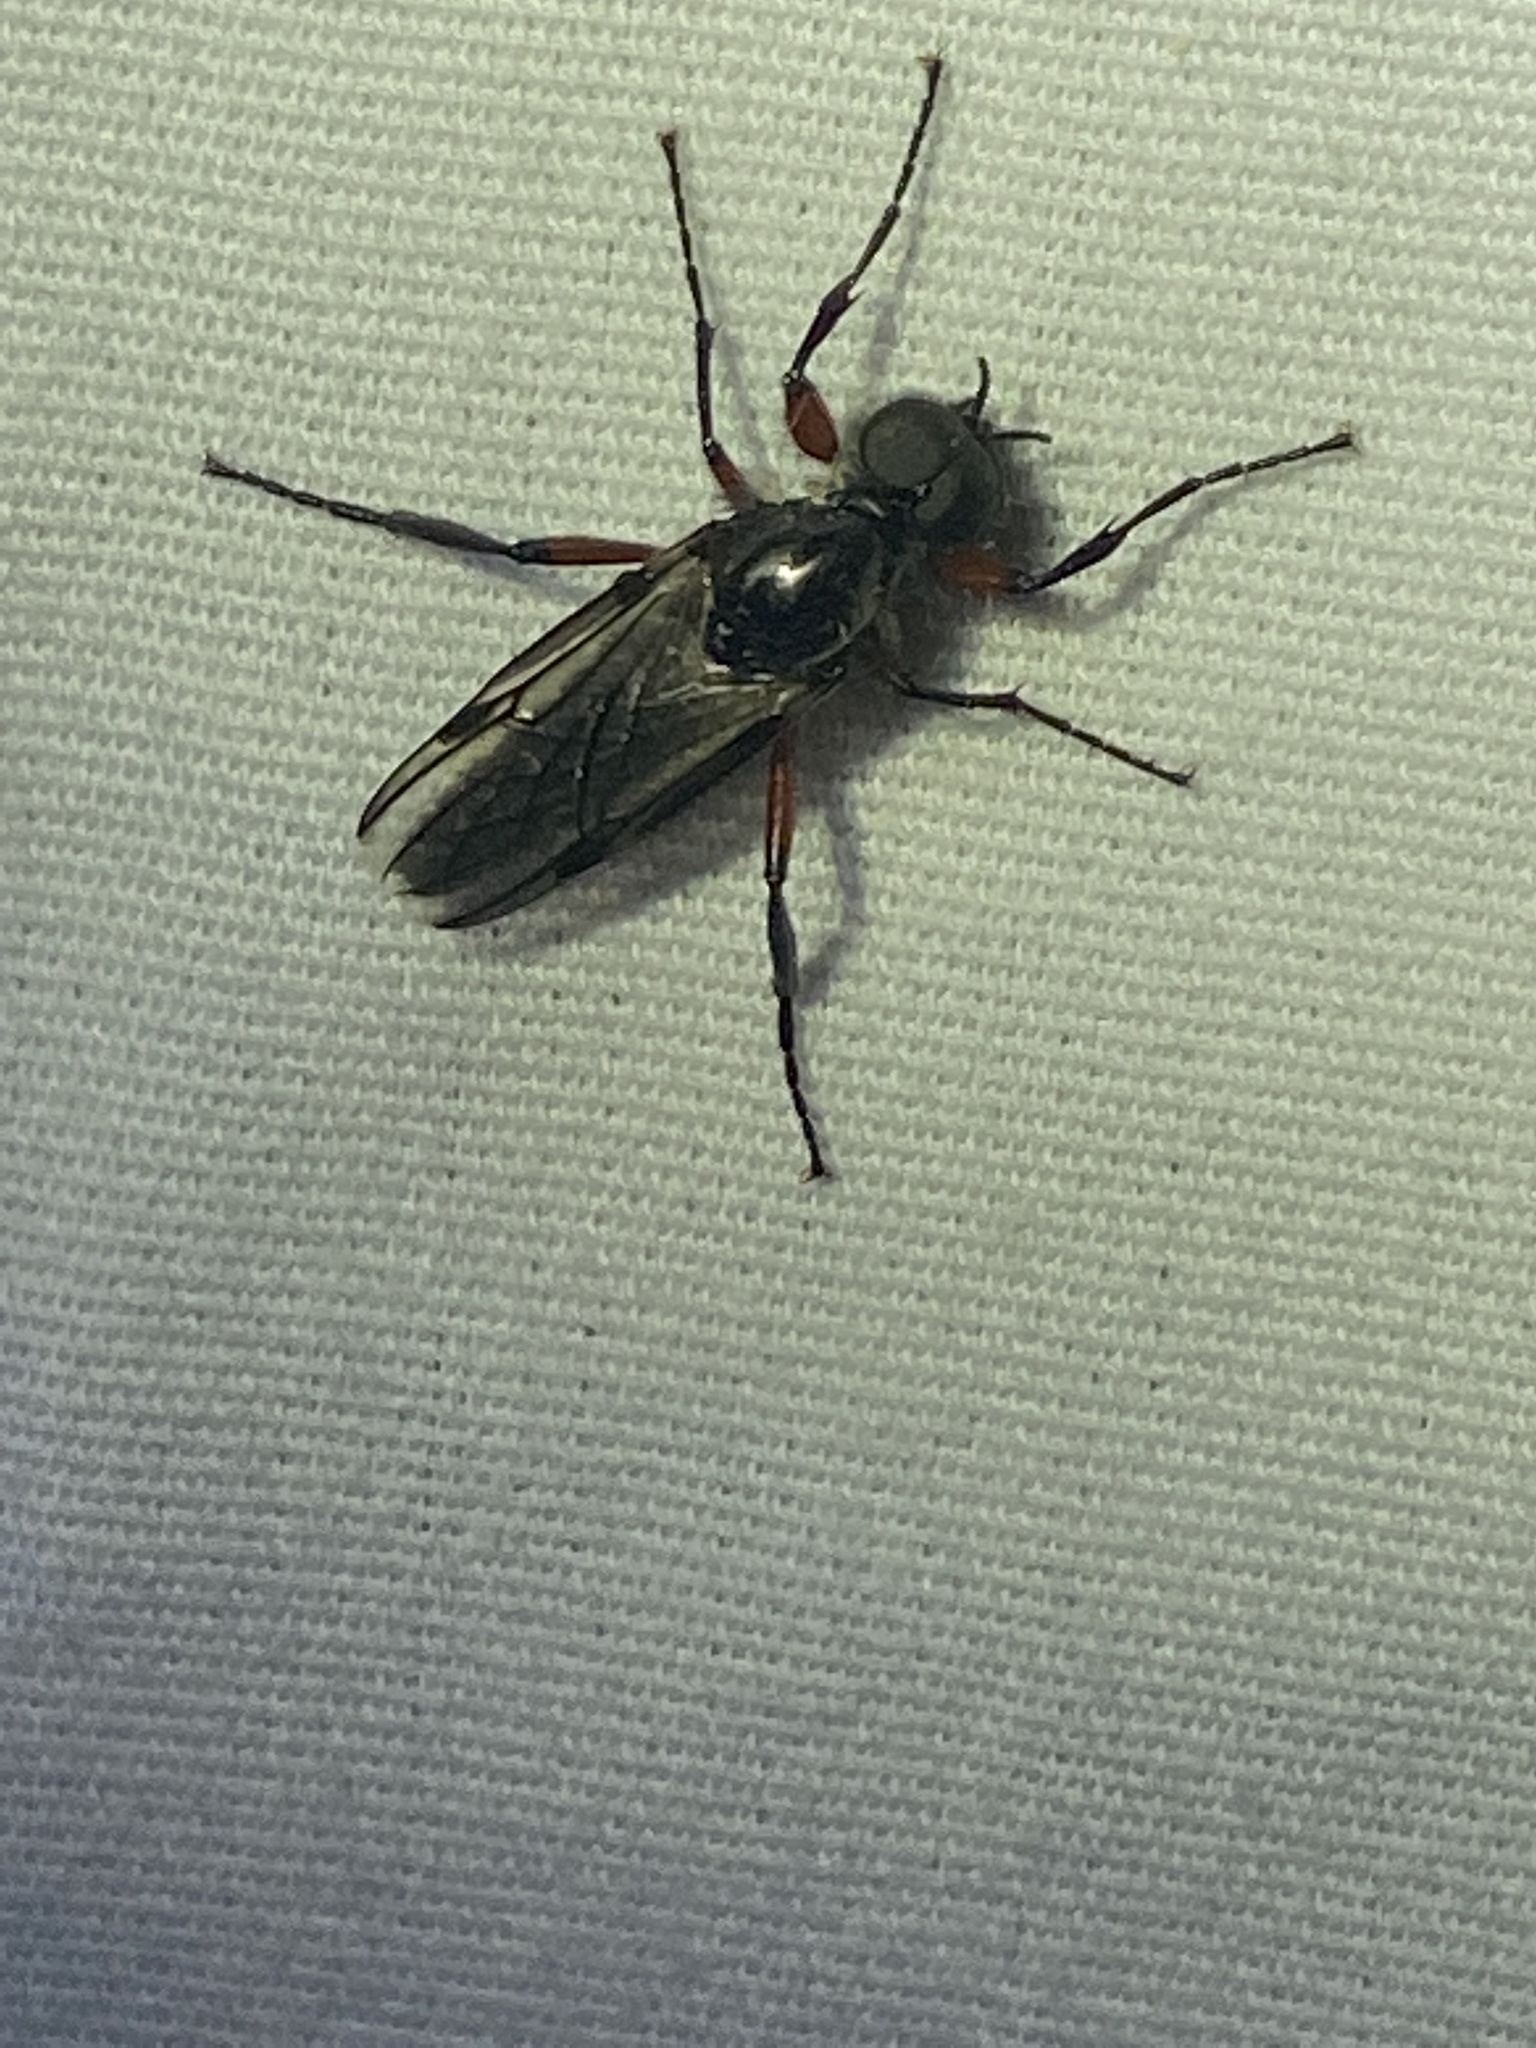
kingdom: Animalia
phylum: Arthropoda
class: Insecta
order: Diptera
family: Bibionidae
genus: Bibio
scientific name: Bibio femoratus
